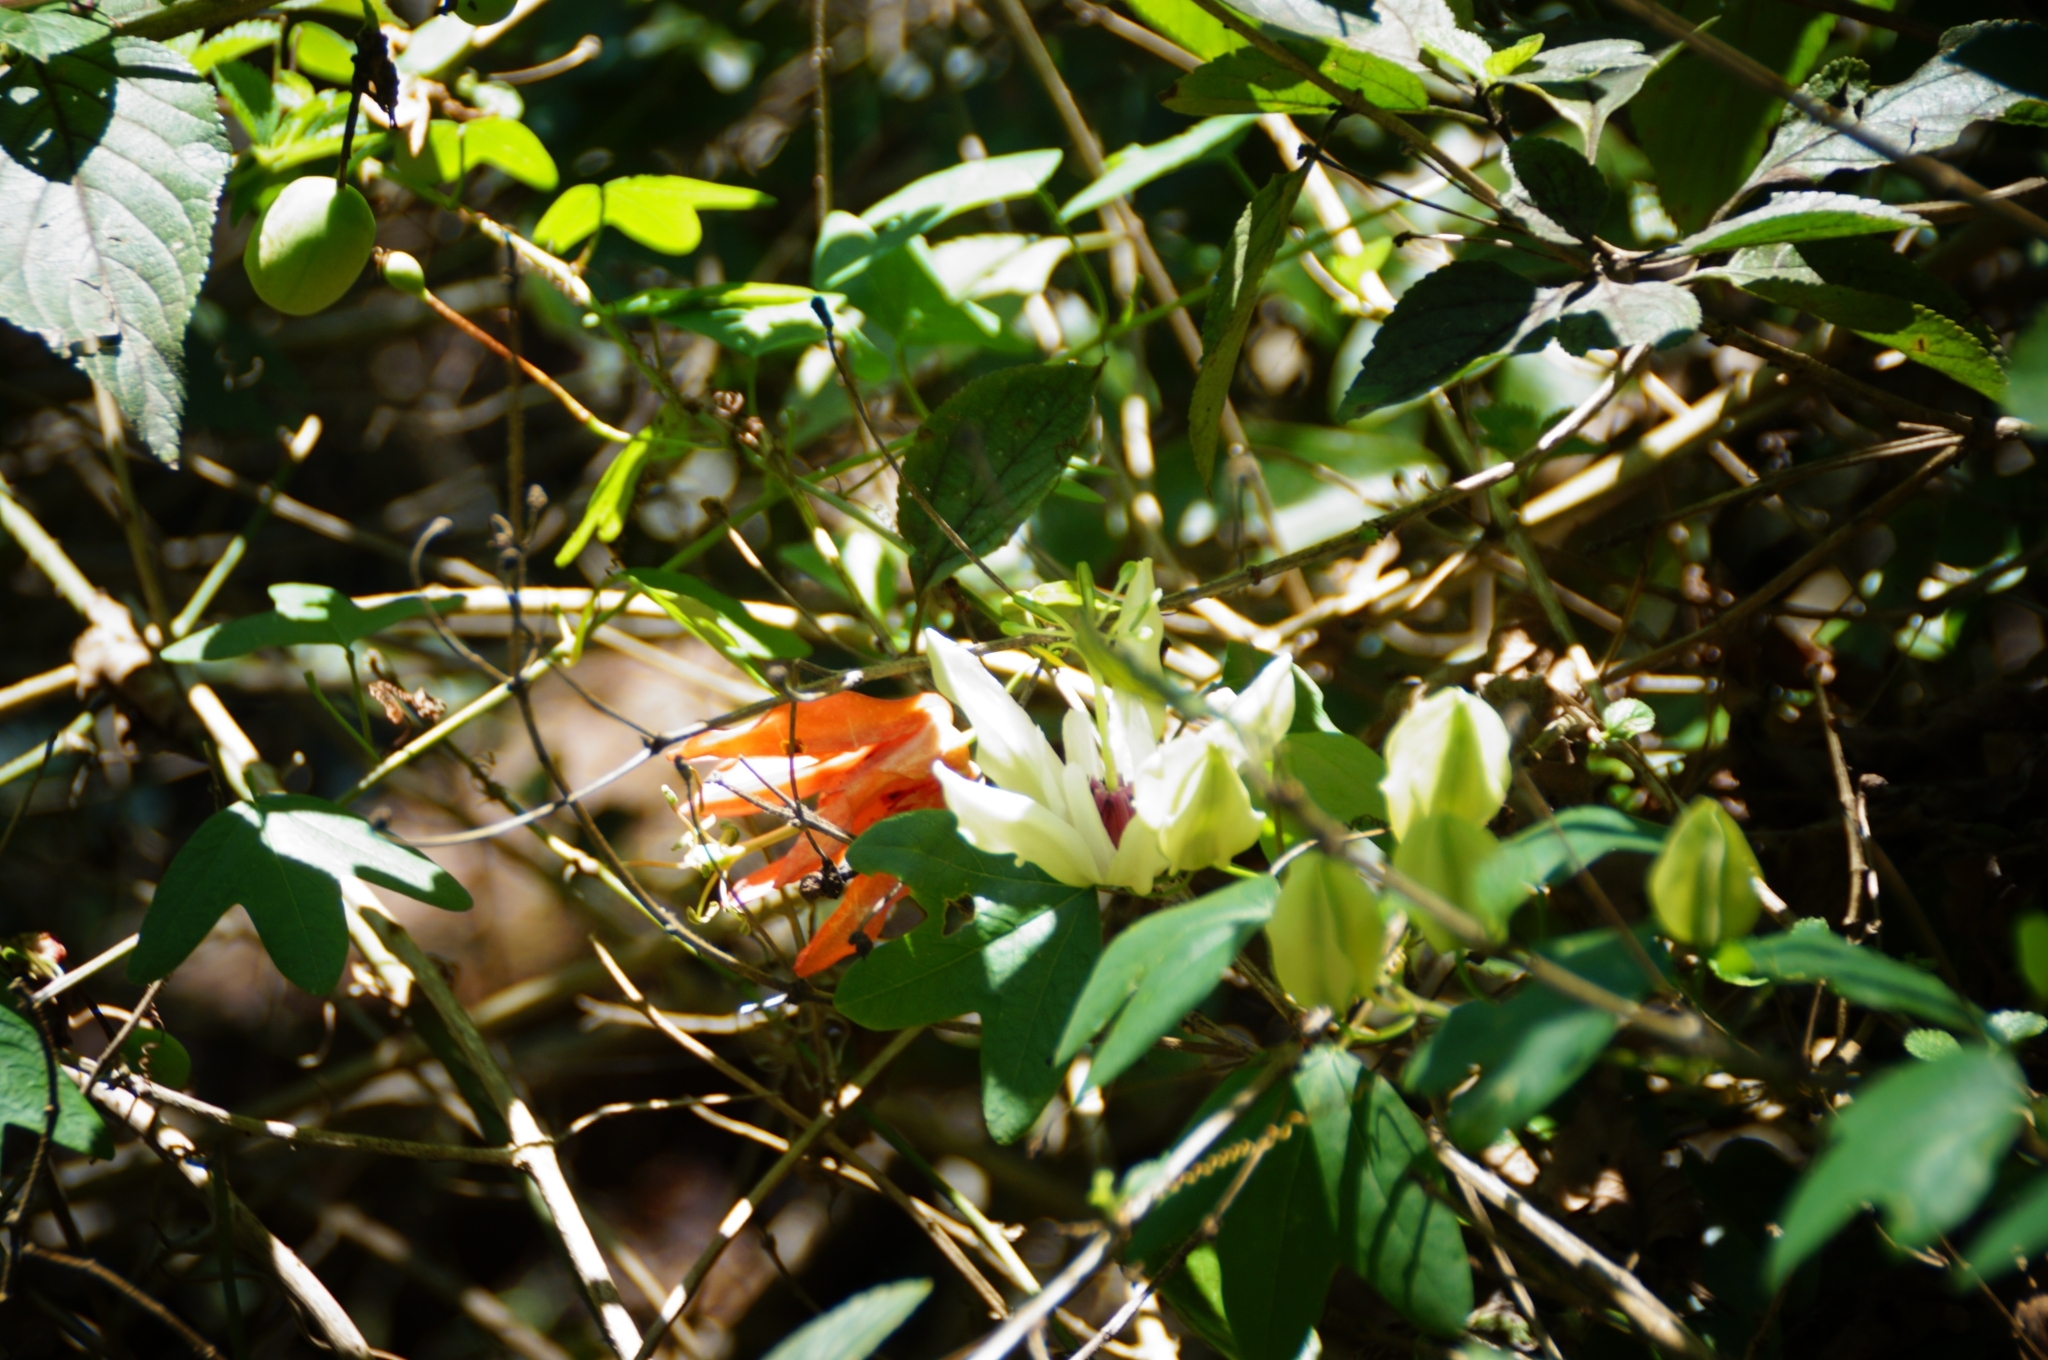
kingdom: Plantae
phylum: Tracheophyta
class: Magnoliopsida
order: Malpighiales
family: Passifloraceae
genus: Passiflora
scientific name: Passiflora aurantia
